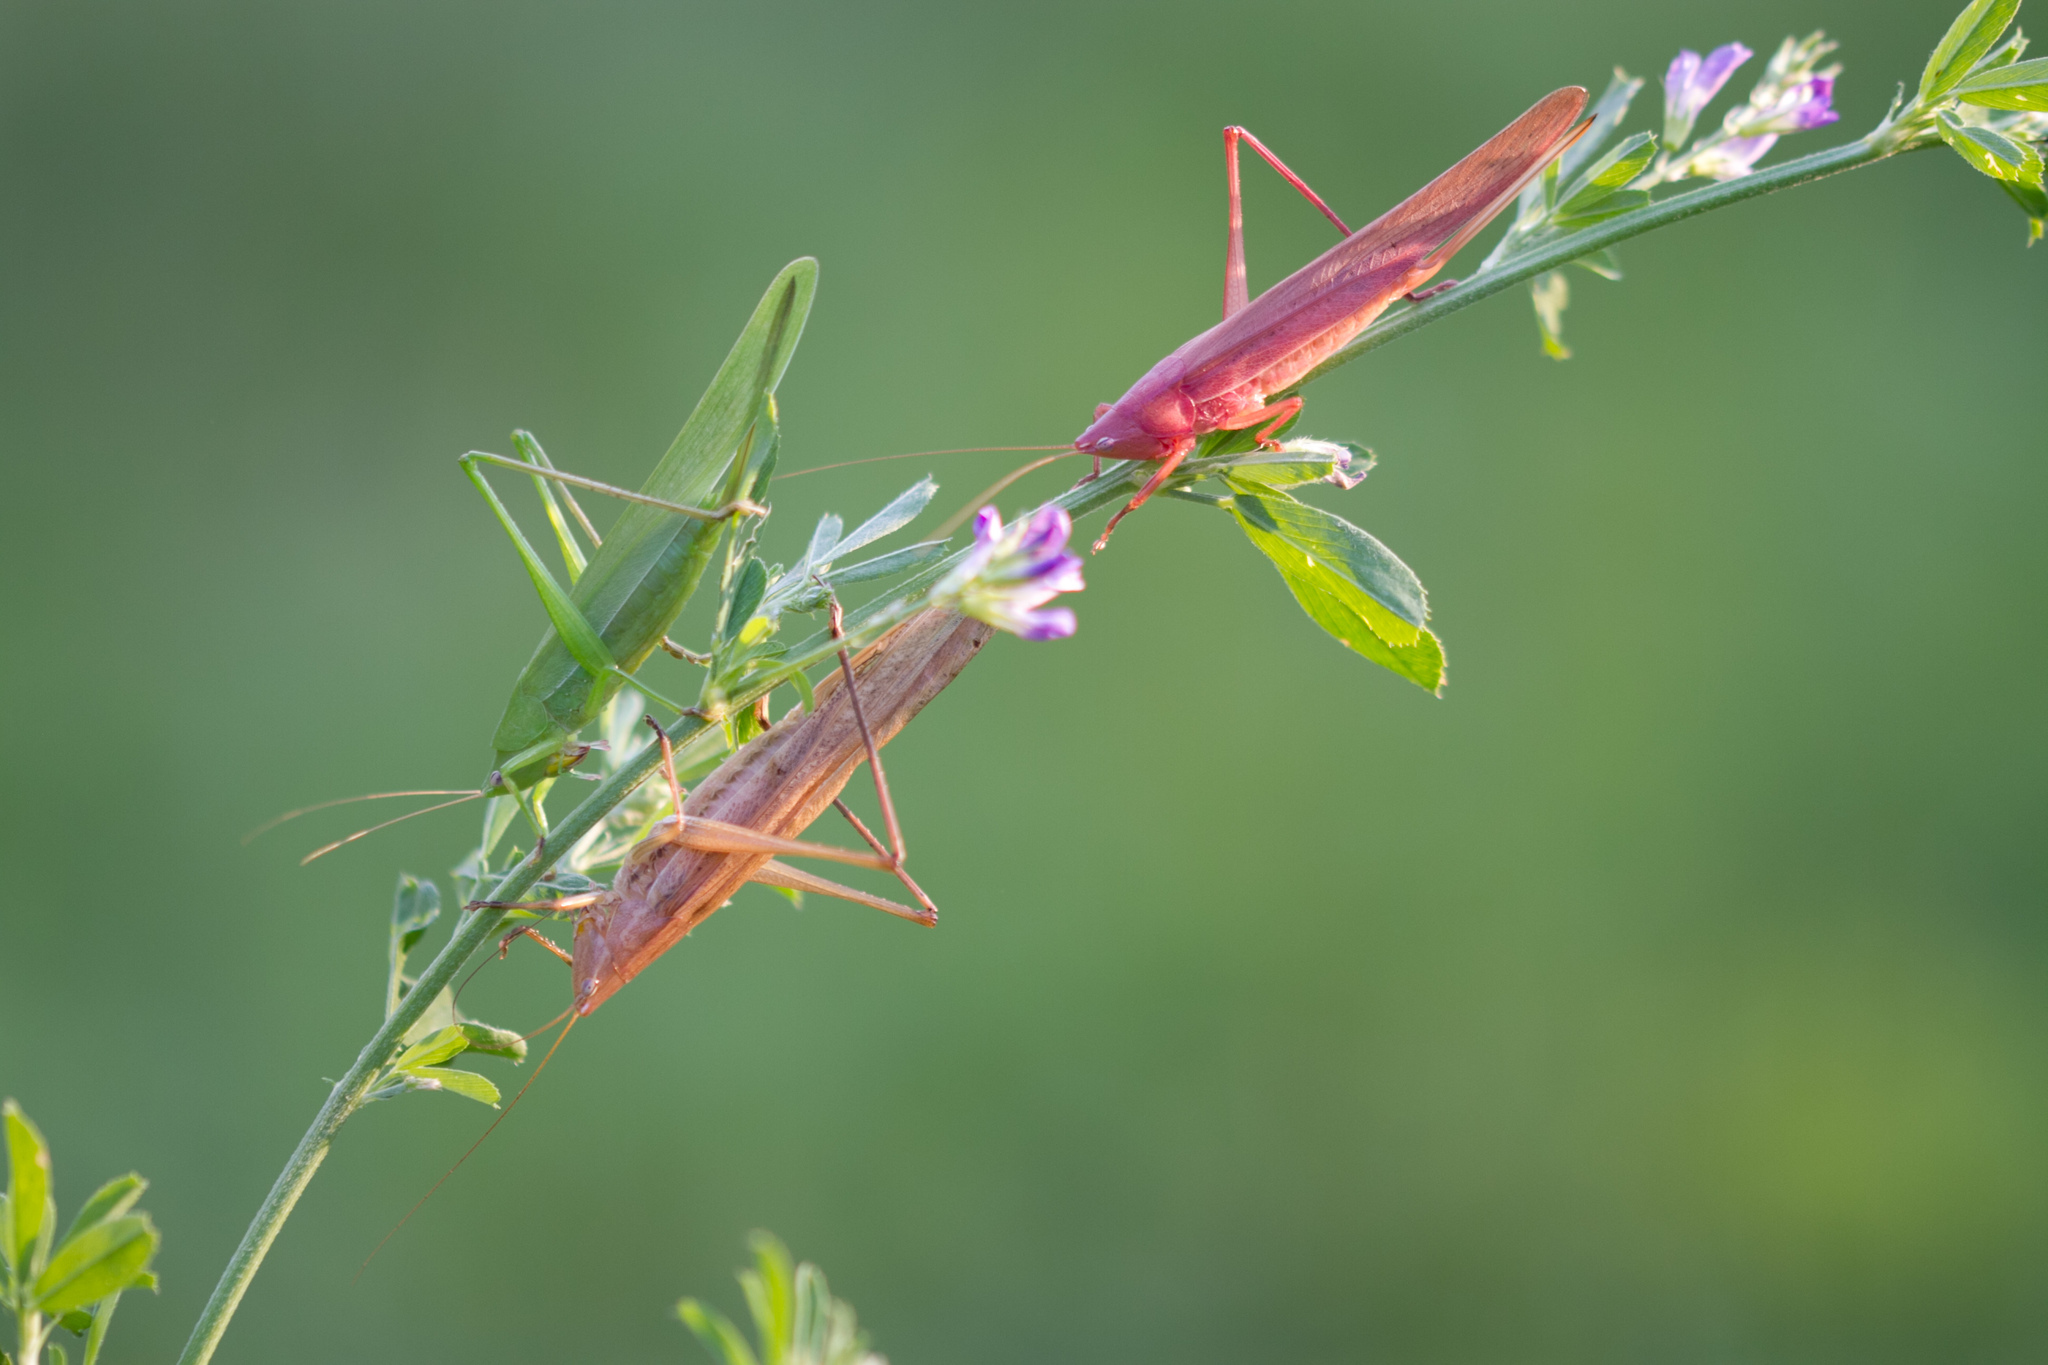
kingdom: Animalia
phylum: Arthropoda
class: Insecta
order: Orthoptera
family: Tettigoniidae
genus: Ruspolia
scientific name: Ruspolia nitidula
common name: Large conehead
